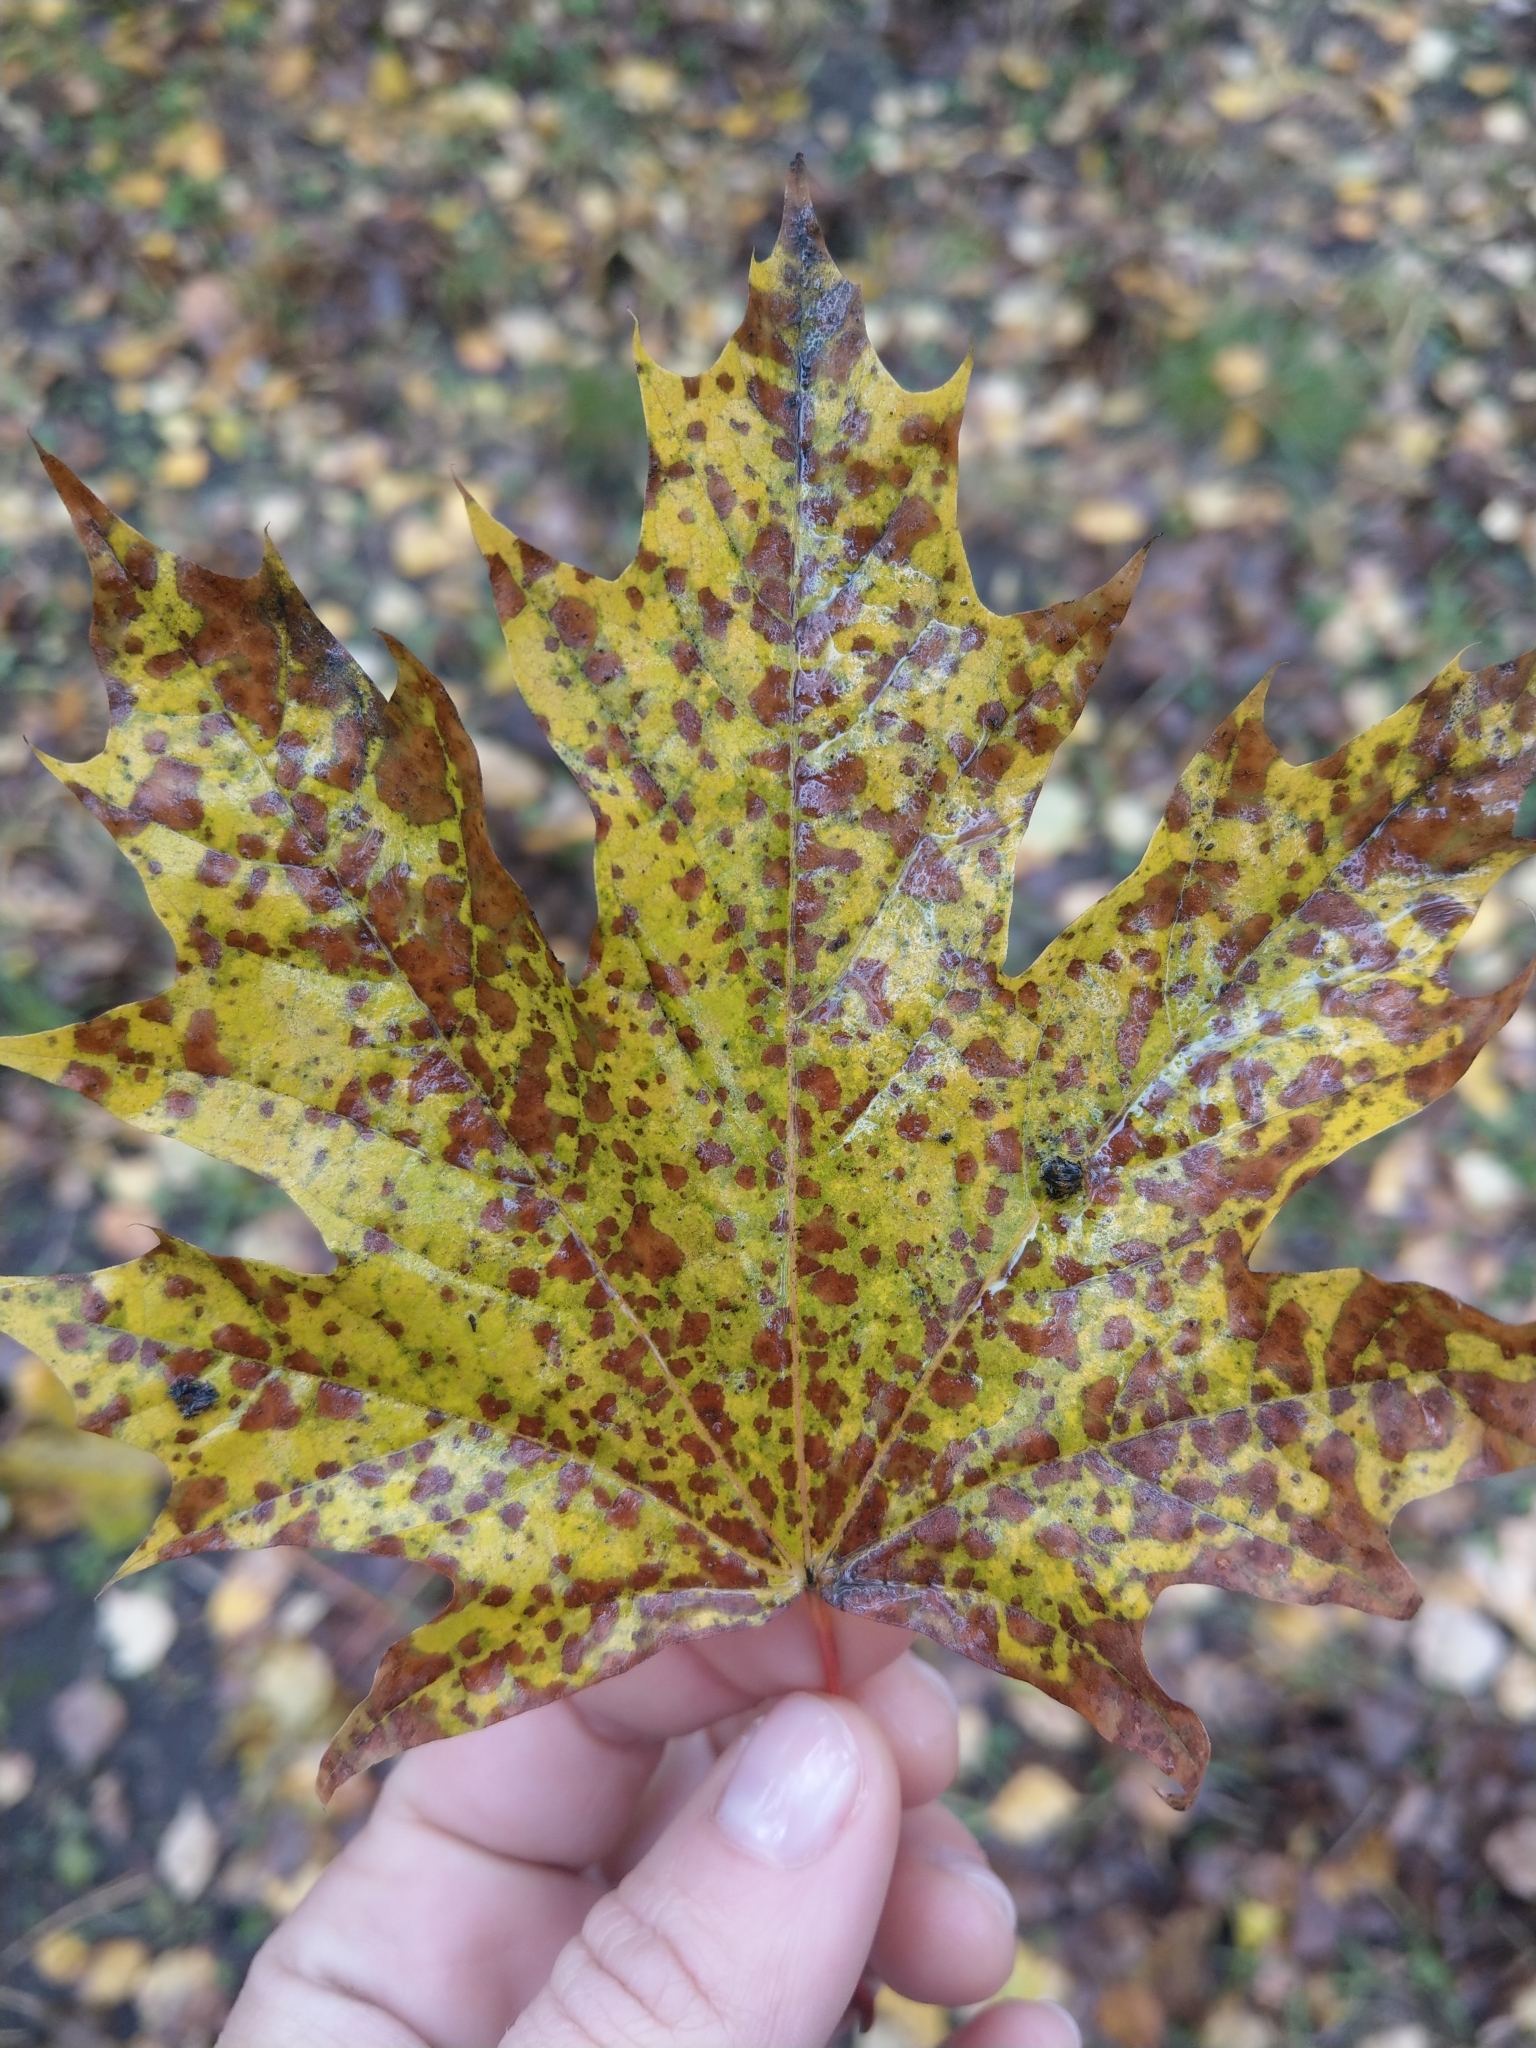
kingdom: Plantae
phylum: Tracheophyta
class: Magnoliopsida
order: Sapindales
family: Sapindaceae
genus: Acer
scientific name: Acer platanoides
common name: Norway maple
